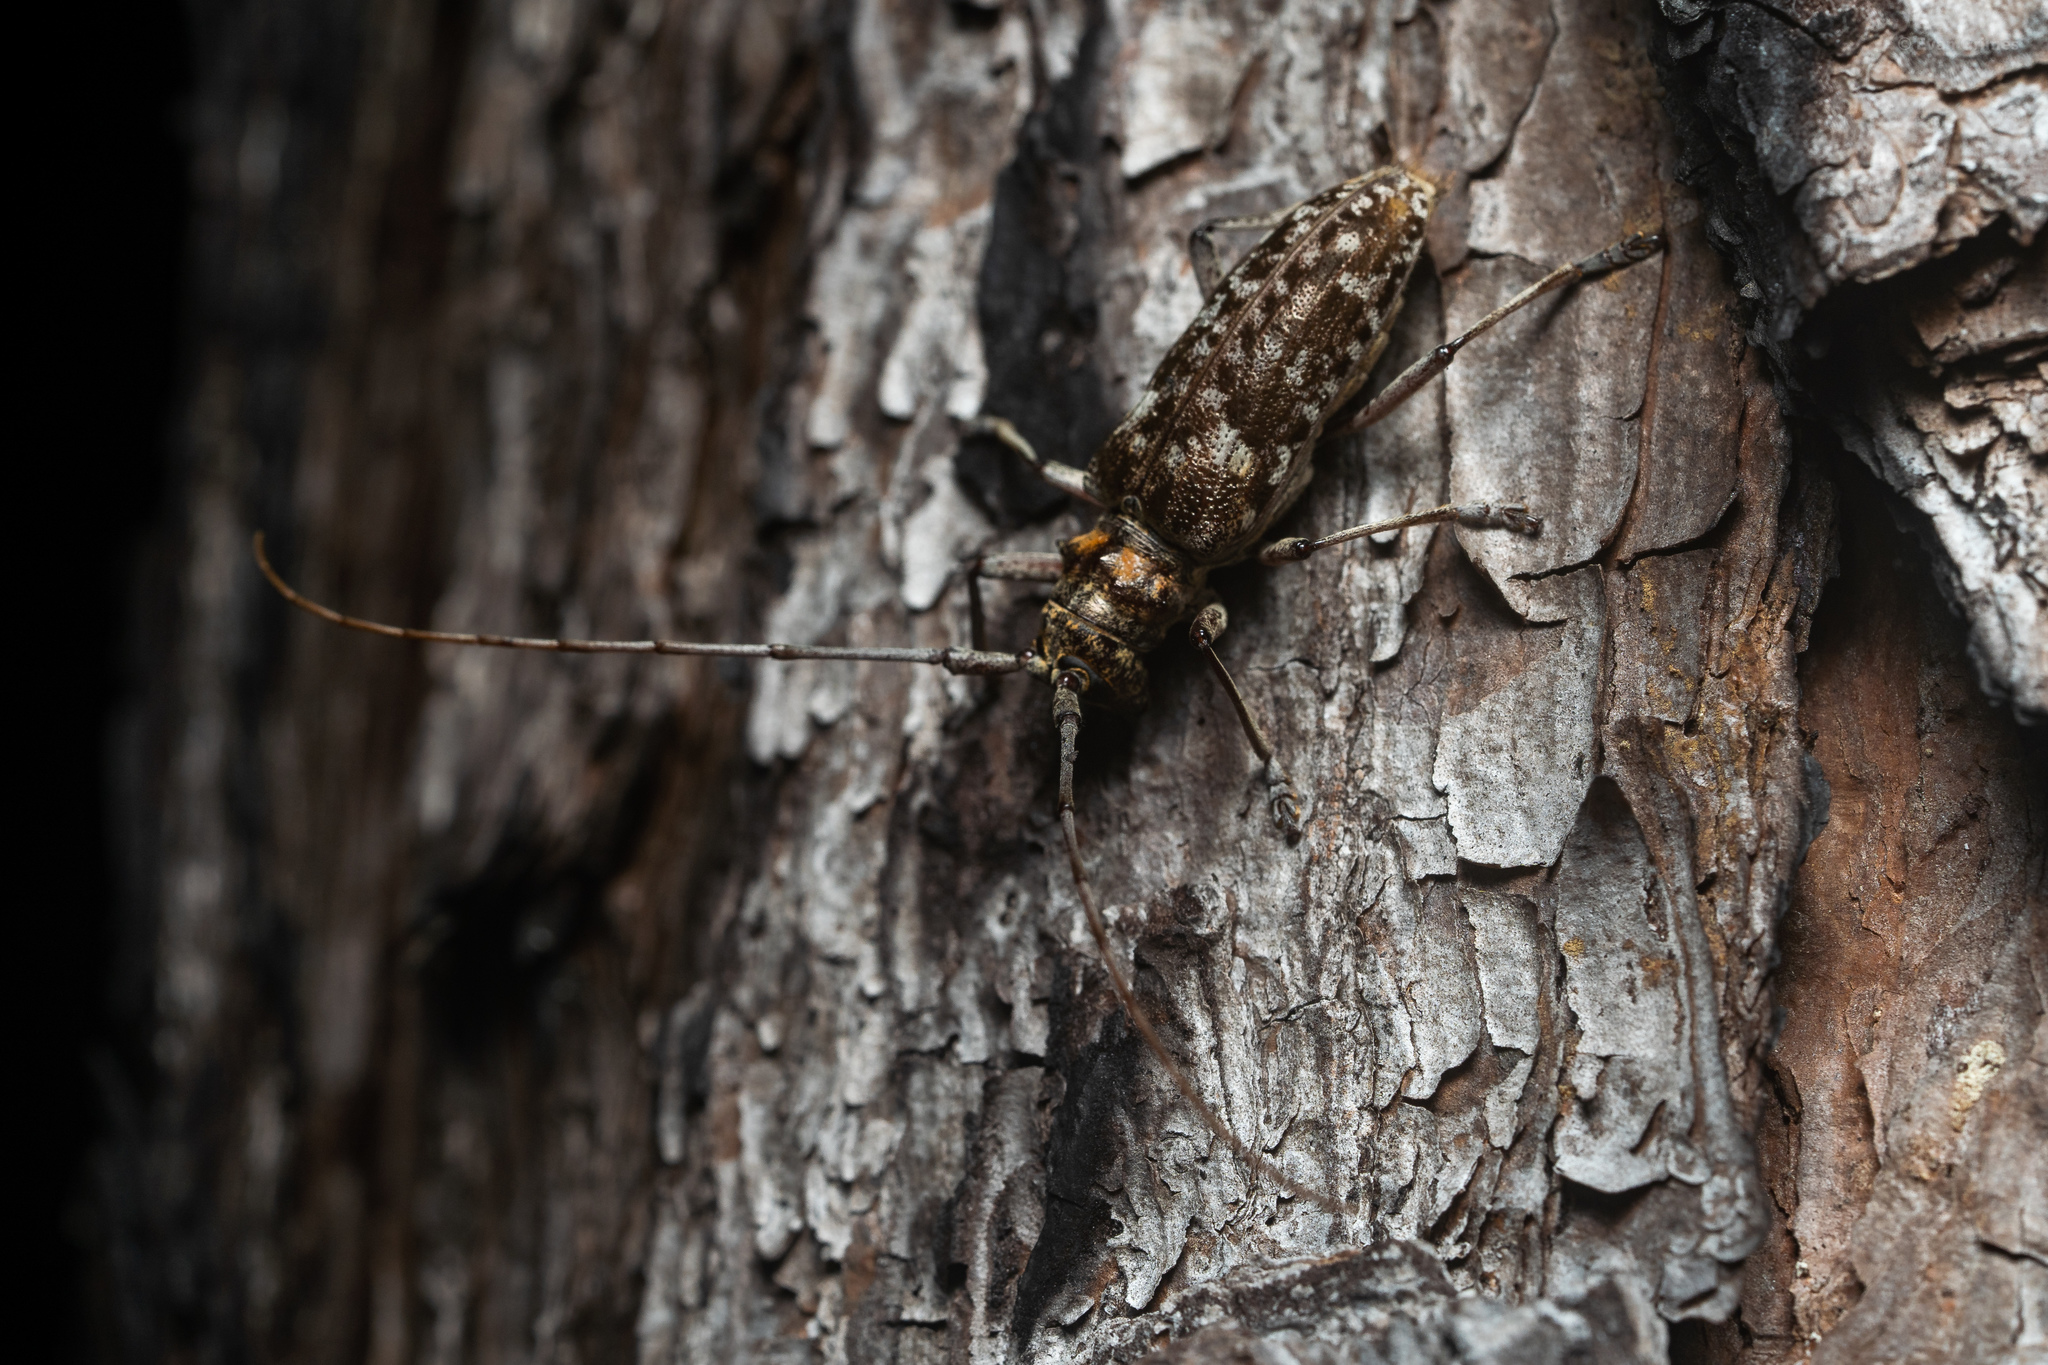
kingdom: Animalia
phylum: Arthropoda
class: Insecta
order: Coleoptera
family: Cerambycidae
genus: Monochamus
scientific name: Monochamus carolinensis
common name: Carolina pine sawyer
